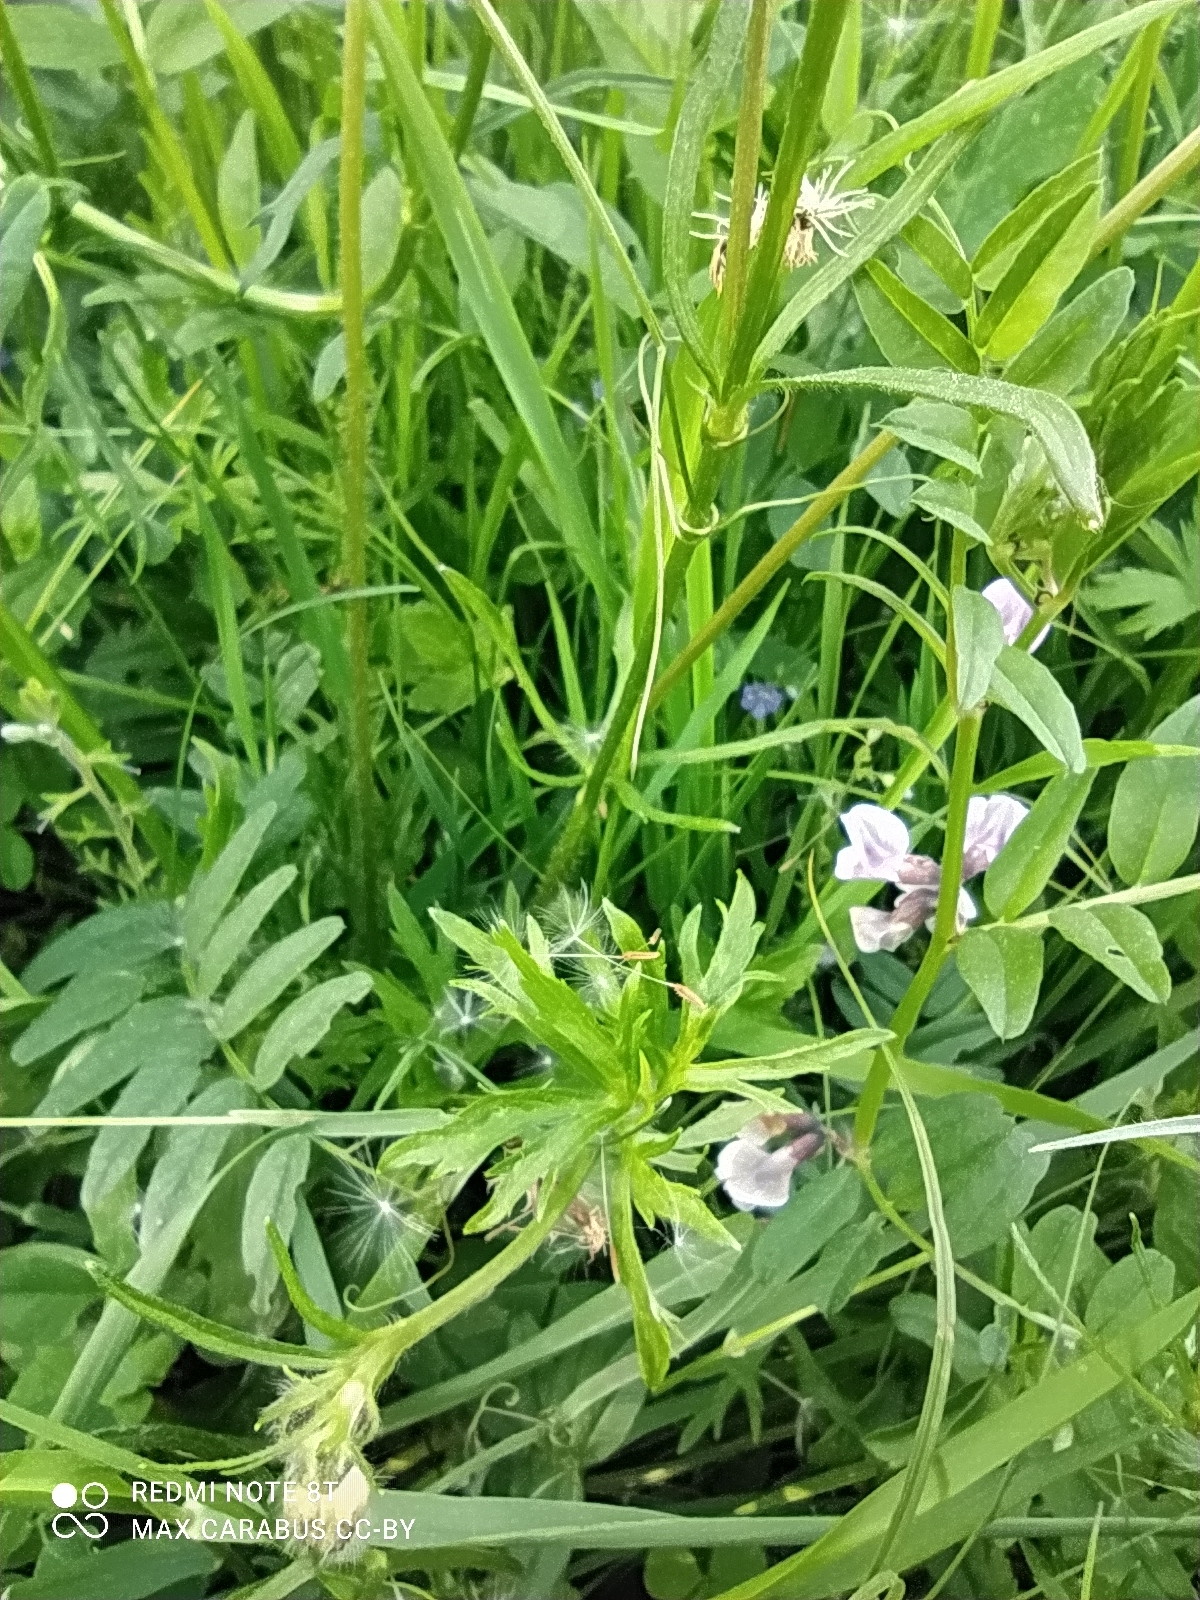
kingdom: Plantae
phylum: Tracheophyta
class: Magnoliopsida
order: Ranunculales
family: Ranunculaceae
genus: Ranunculus
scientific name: Ranunculus polyanthemos
